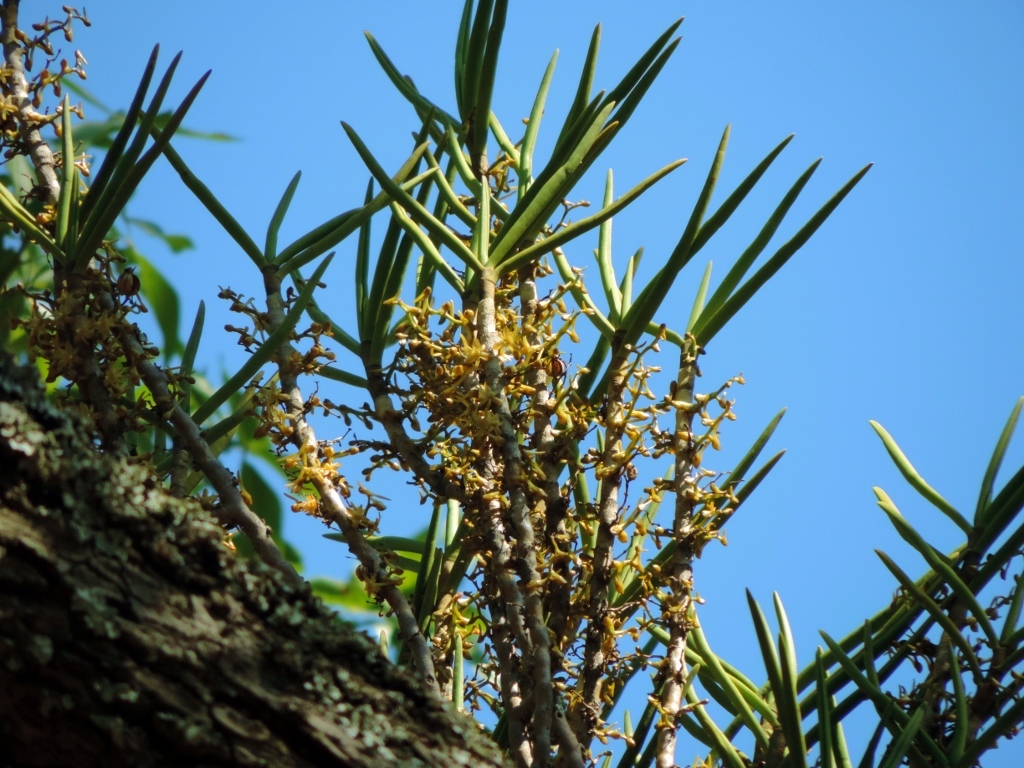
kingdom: Plantae
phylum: Tracheophyta
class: Liliopsida
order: Asparagales
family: Orchidaceae
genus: Tridactyle
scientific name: Tridactyle tridentata
